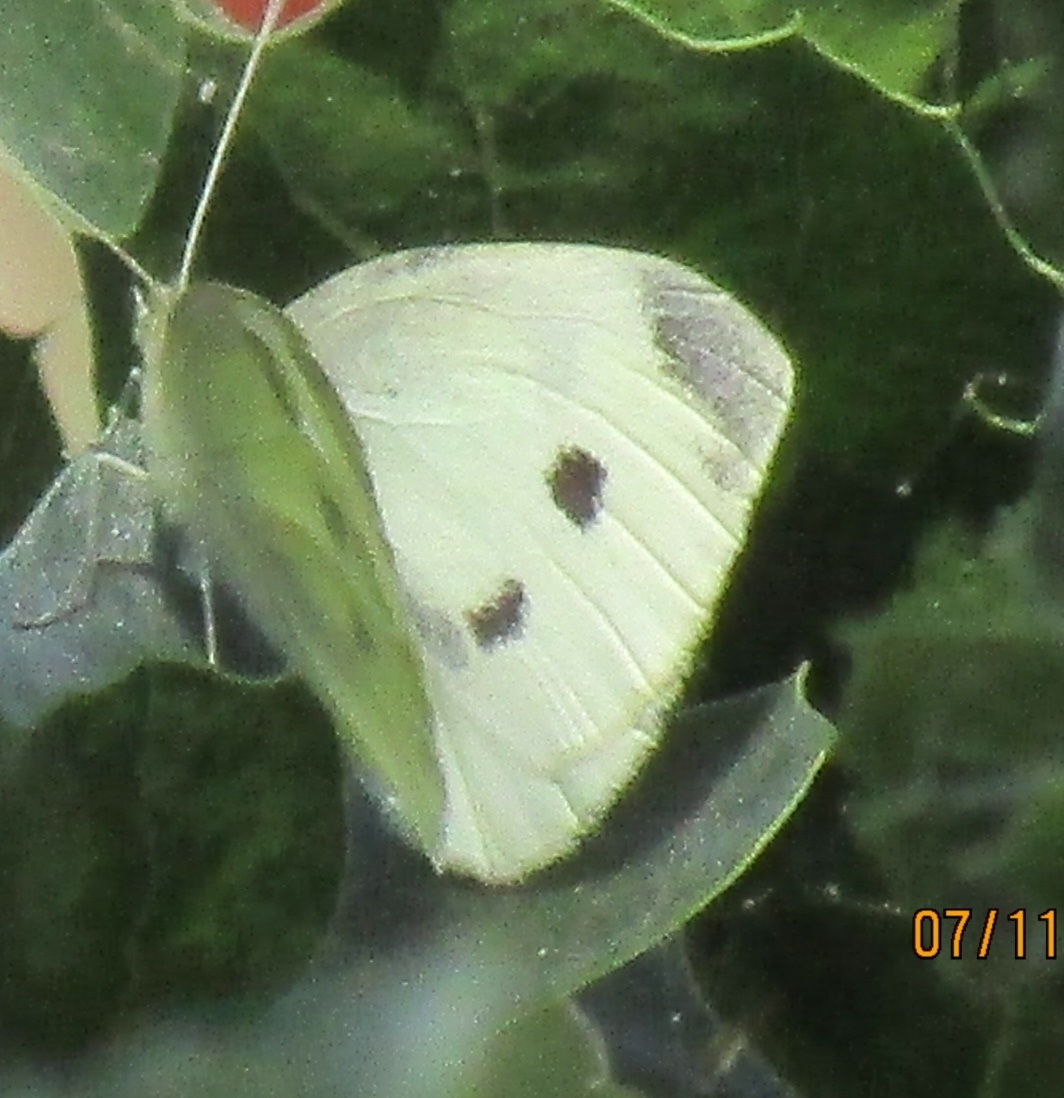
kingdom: Animalia
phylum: Arthropoda
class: Insecta
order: Lepidoptera
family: Pieridae
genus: Pieris
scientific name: Pieris rapae
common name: Small white
